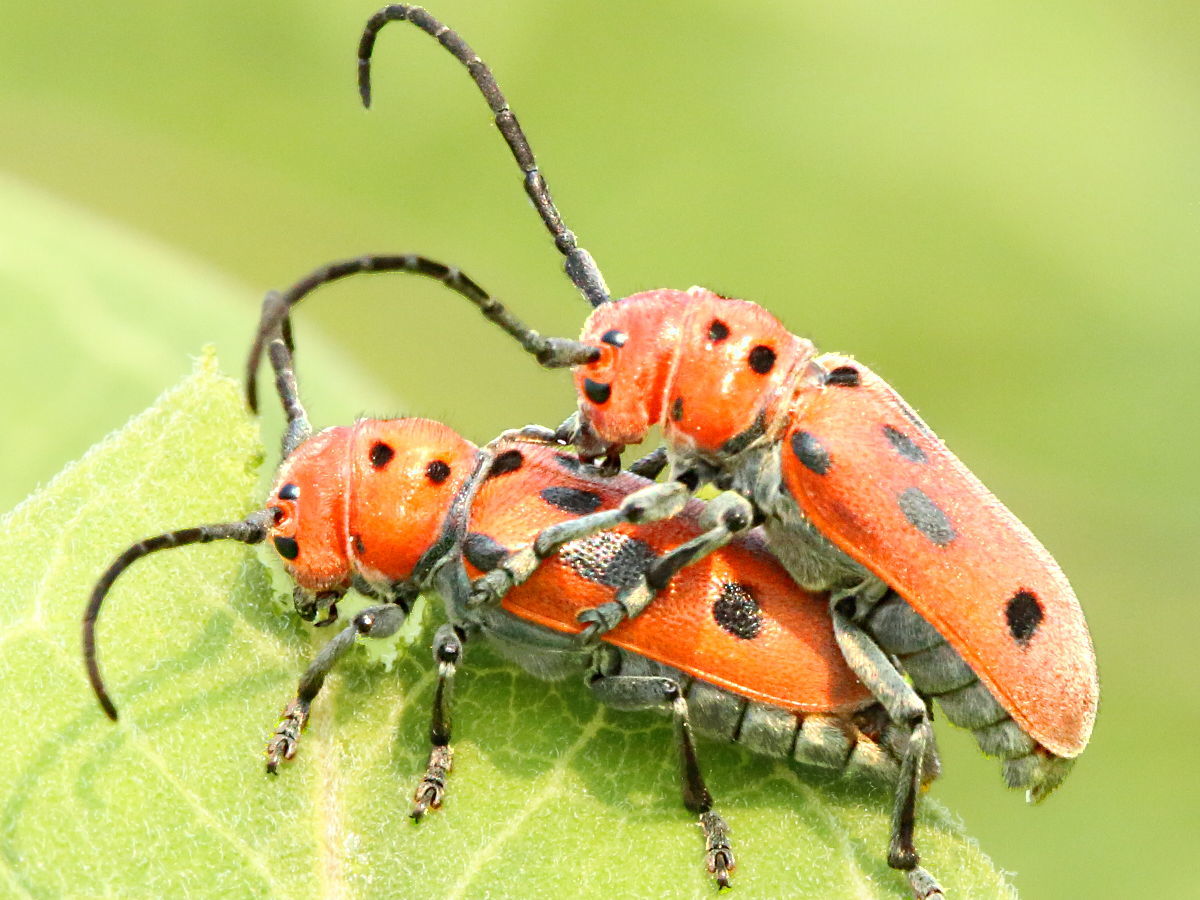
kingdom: Animalia
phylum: Arthropoda
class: Insecta
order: Coleoptera
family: Cerambycidae
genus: Tetraopes
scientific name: Tetraopes tetrophthalmus
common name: Red milkweed beetle
